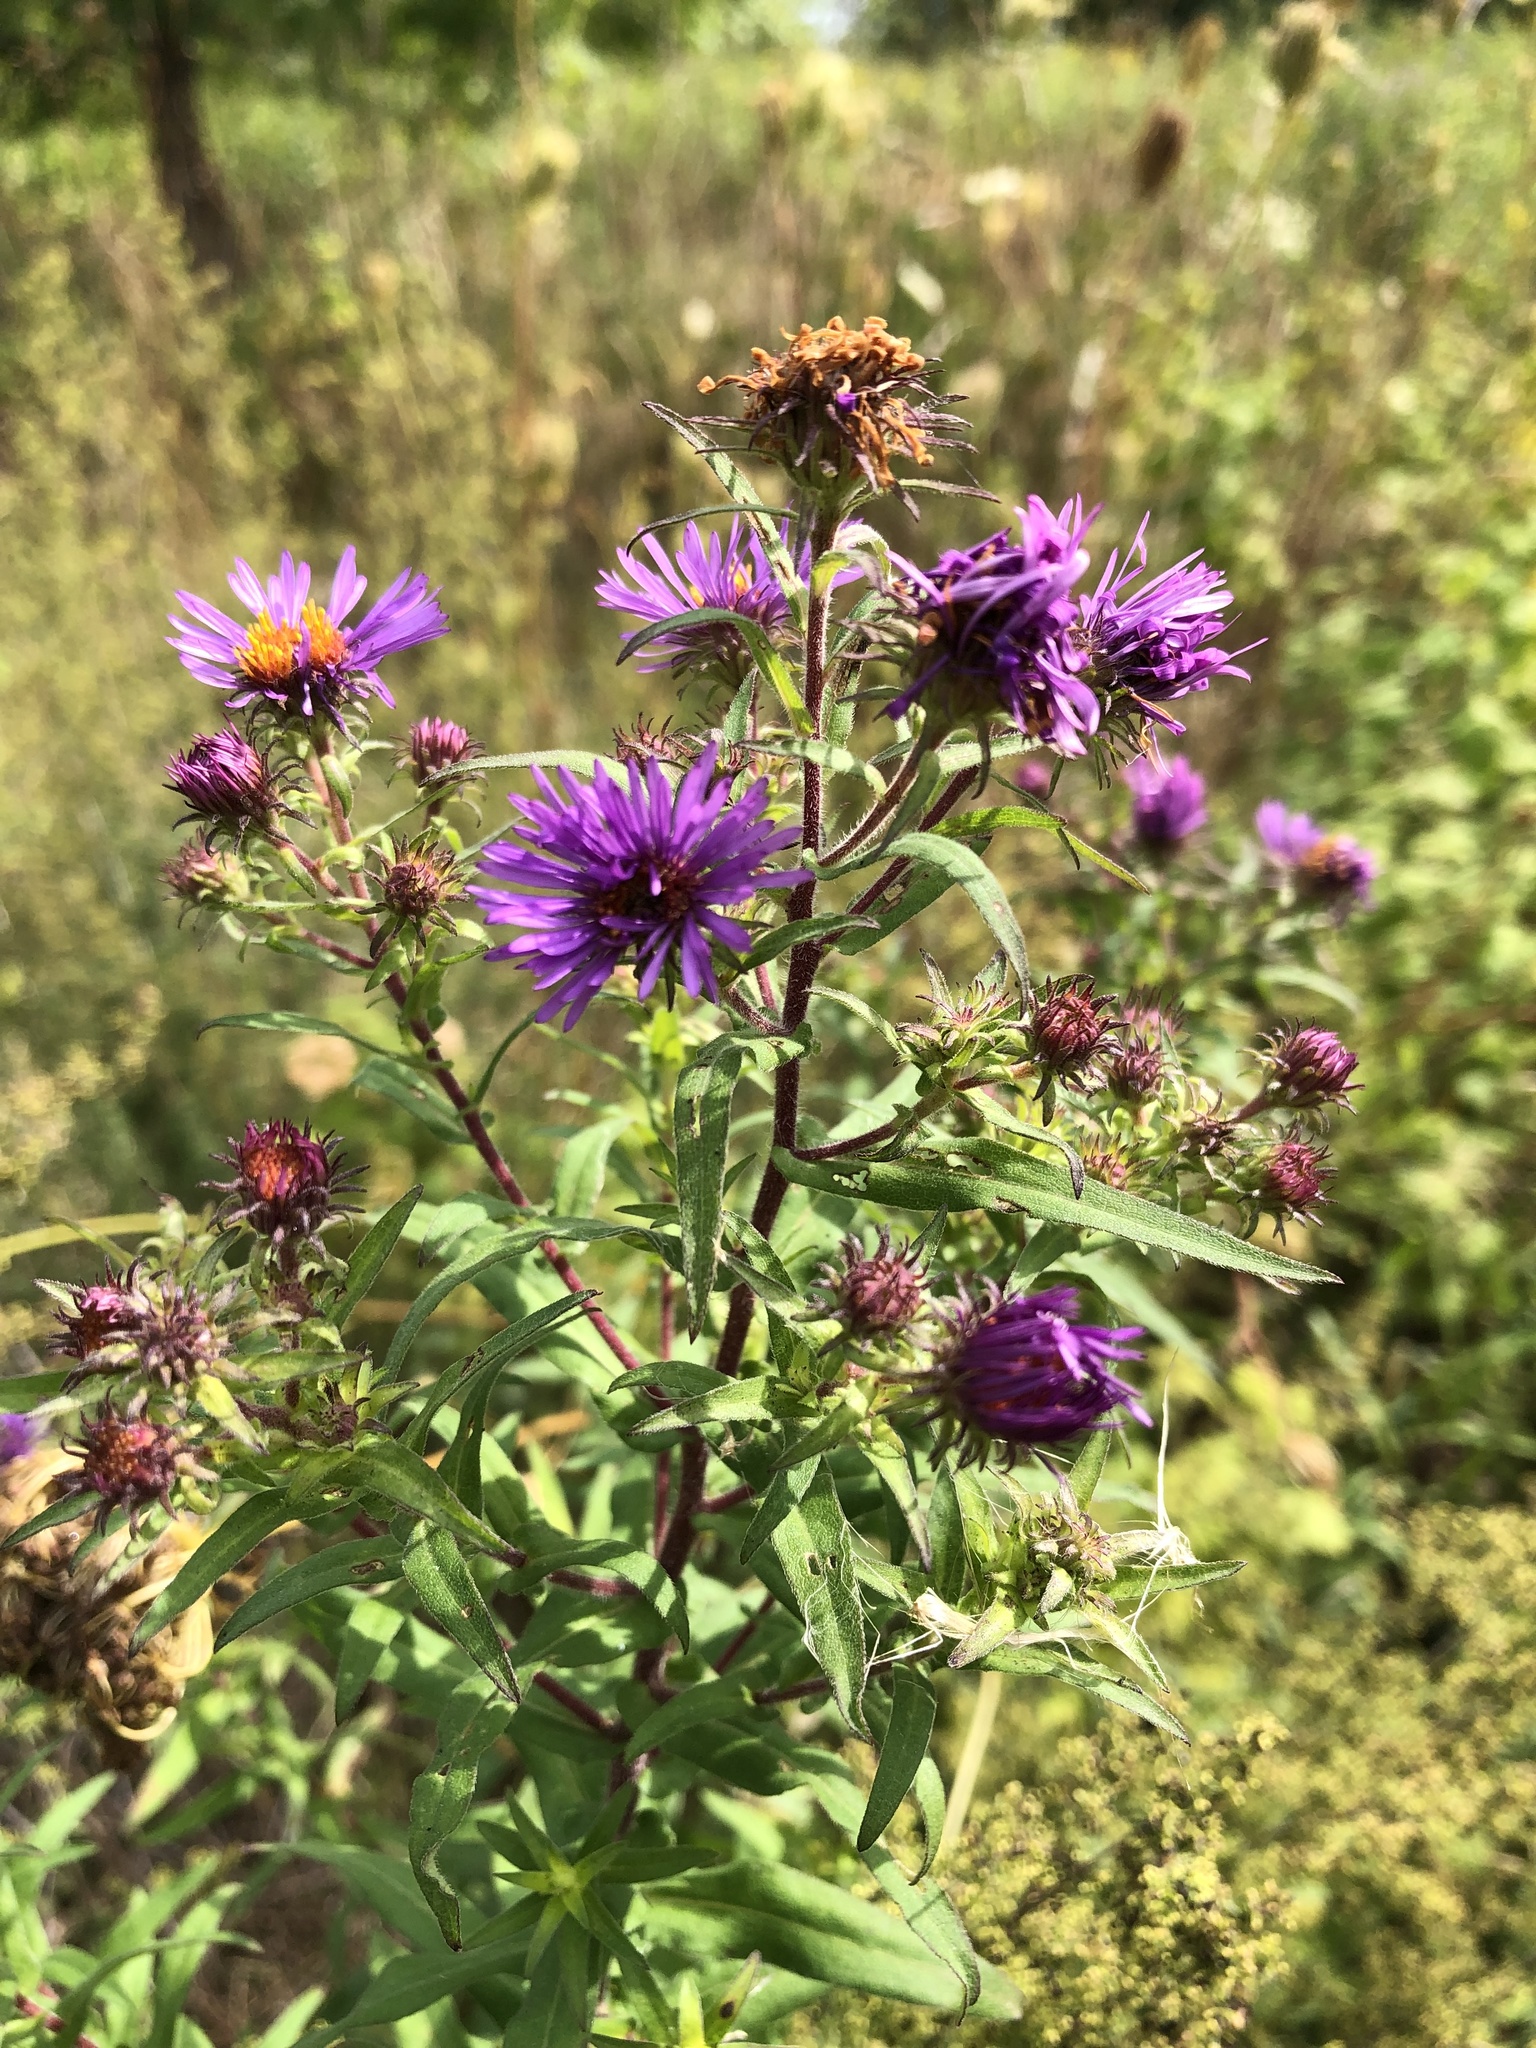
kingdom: Plantae
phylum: Tracheophyta
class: Magnoliopsida
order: Asterales
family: Asteraceae
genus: Symphyotrichum
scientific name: Symphyotrichum novae-angliae
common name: Michaelmas daisy
